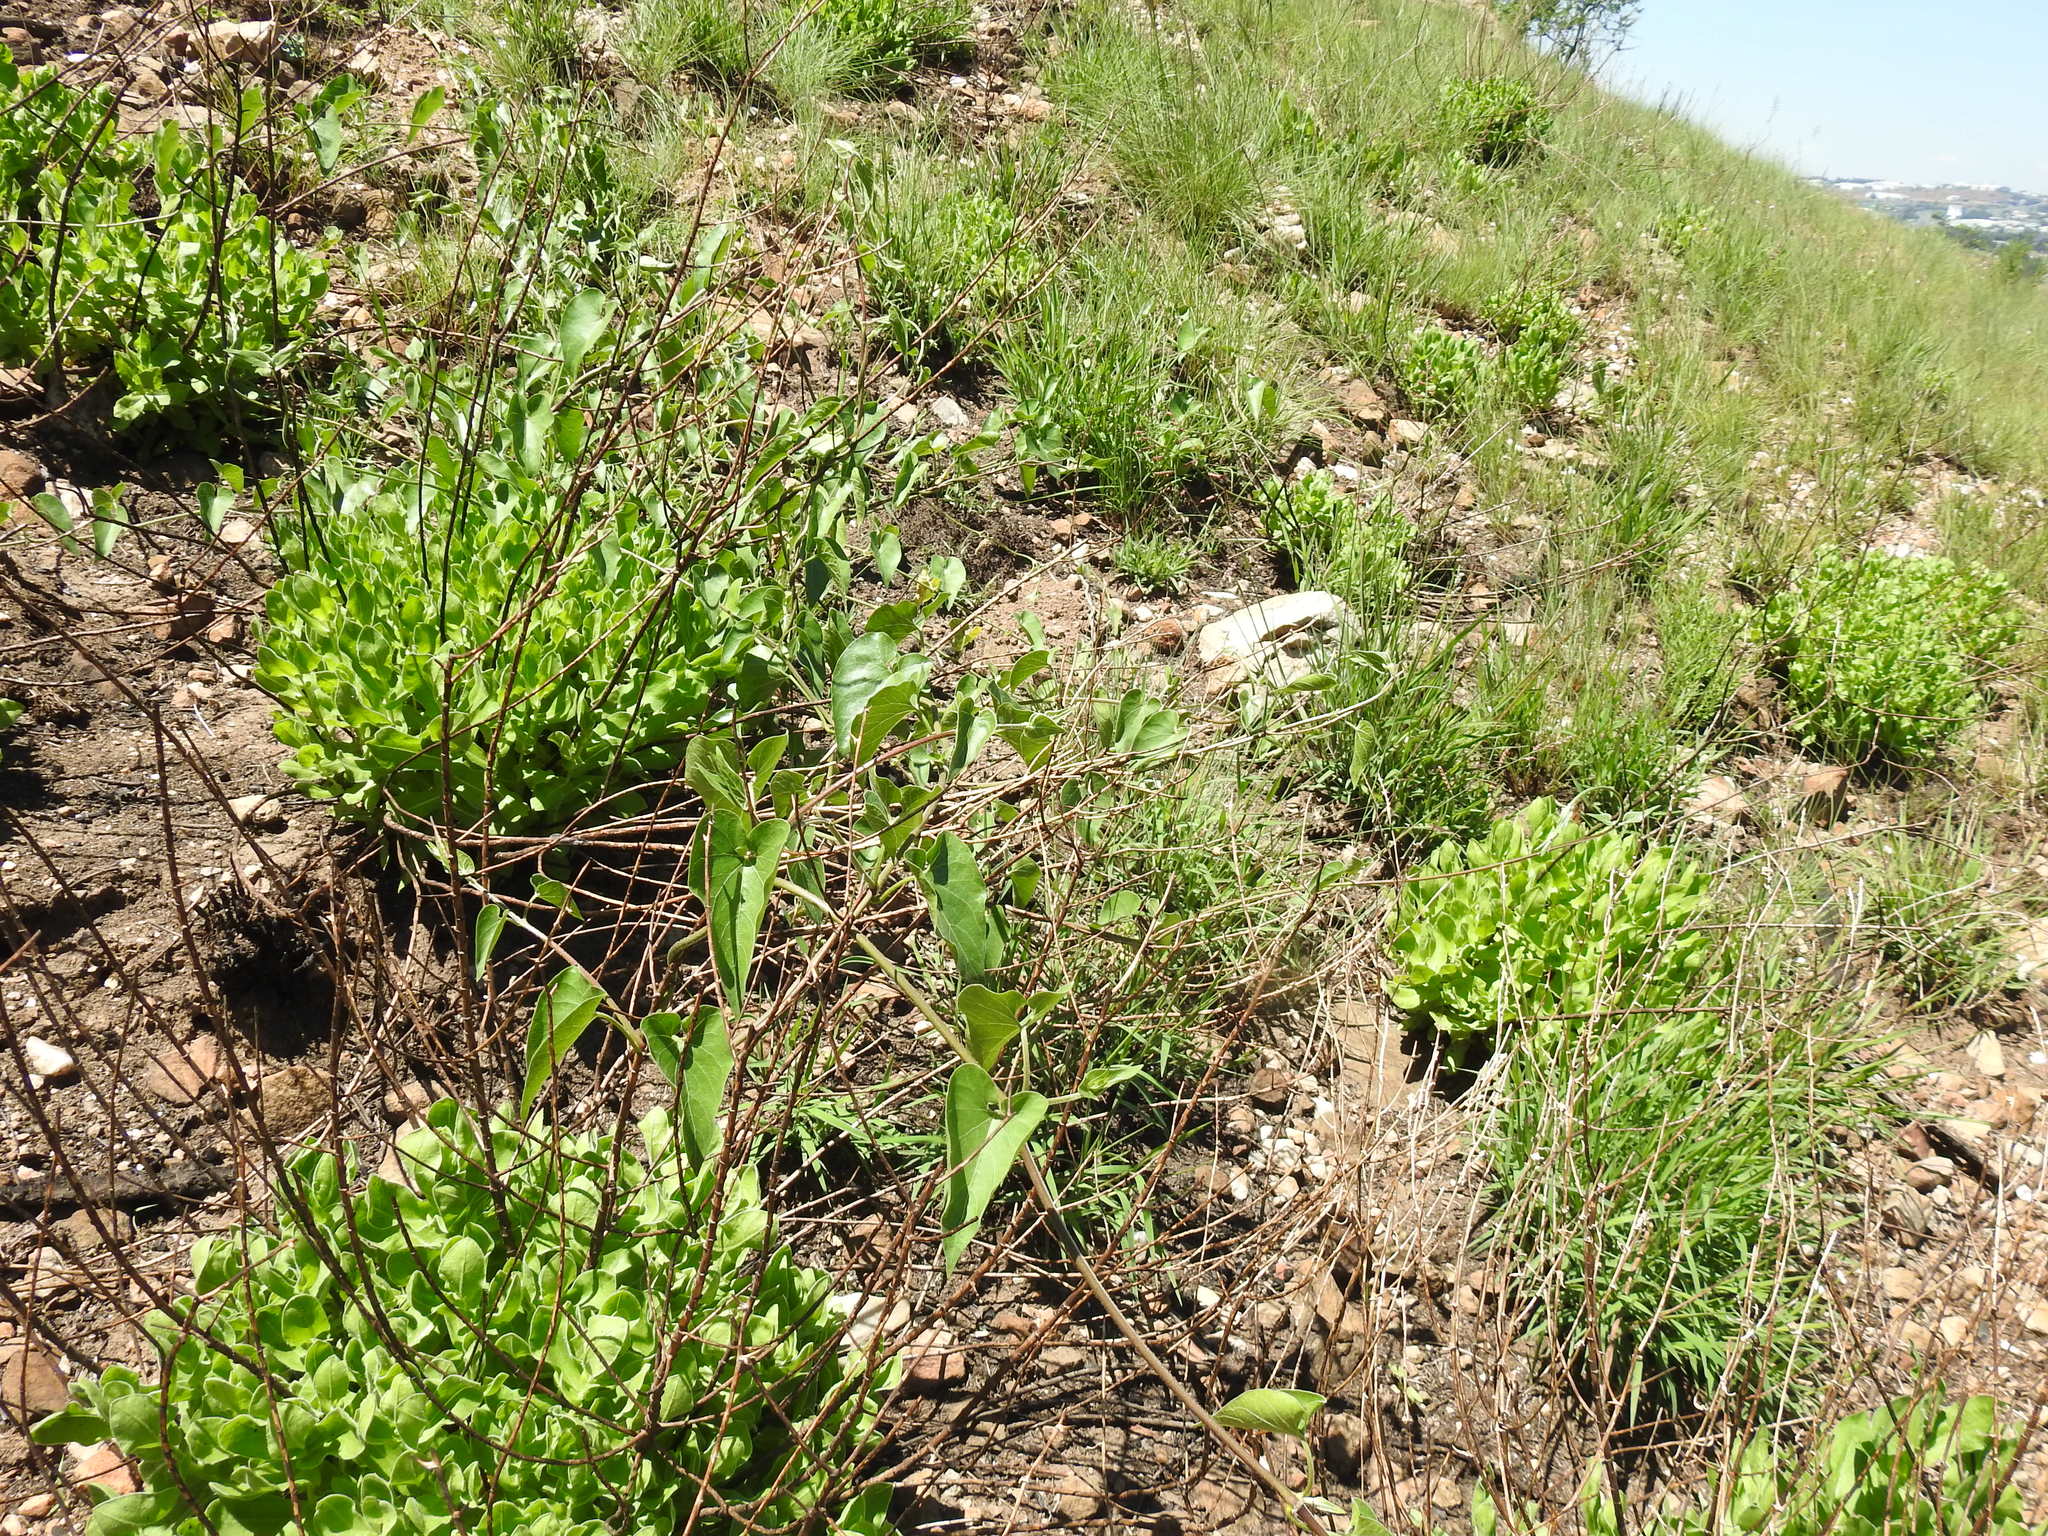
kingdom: Plantae
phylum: Tracheophyta
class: Magnoliopsida
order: Gentianales
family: Apocynaceae
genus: Cynanchum
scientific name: Cynanchum
